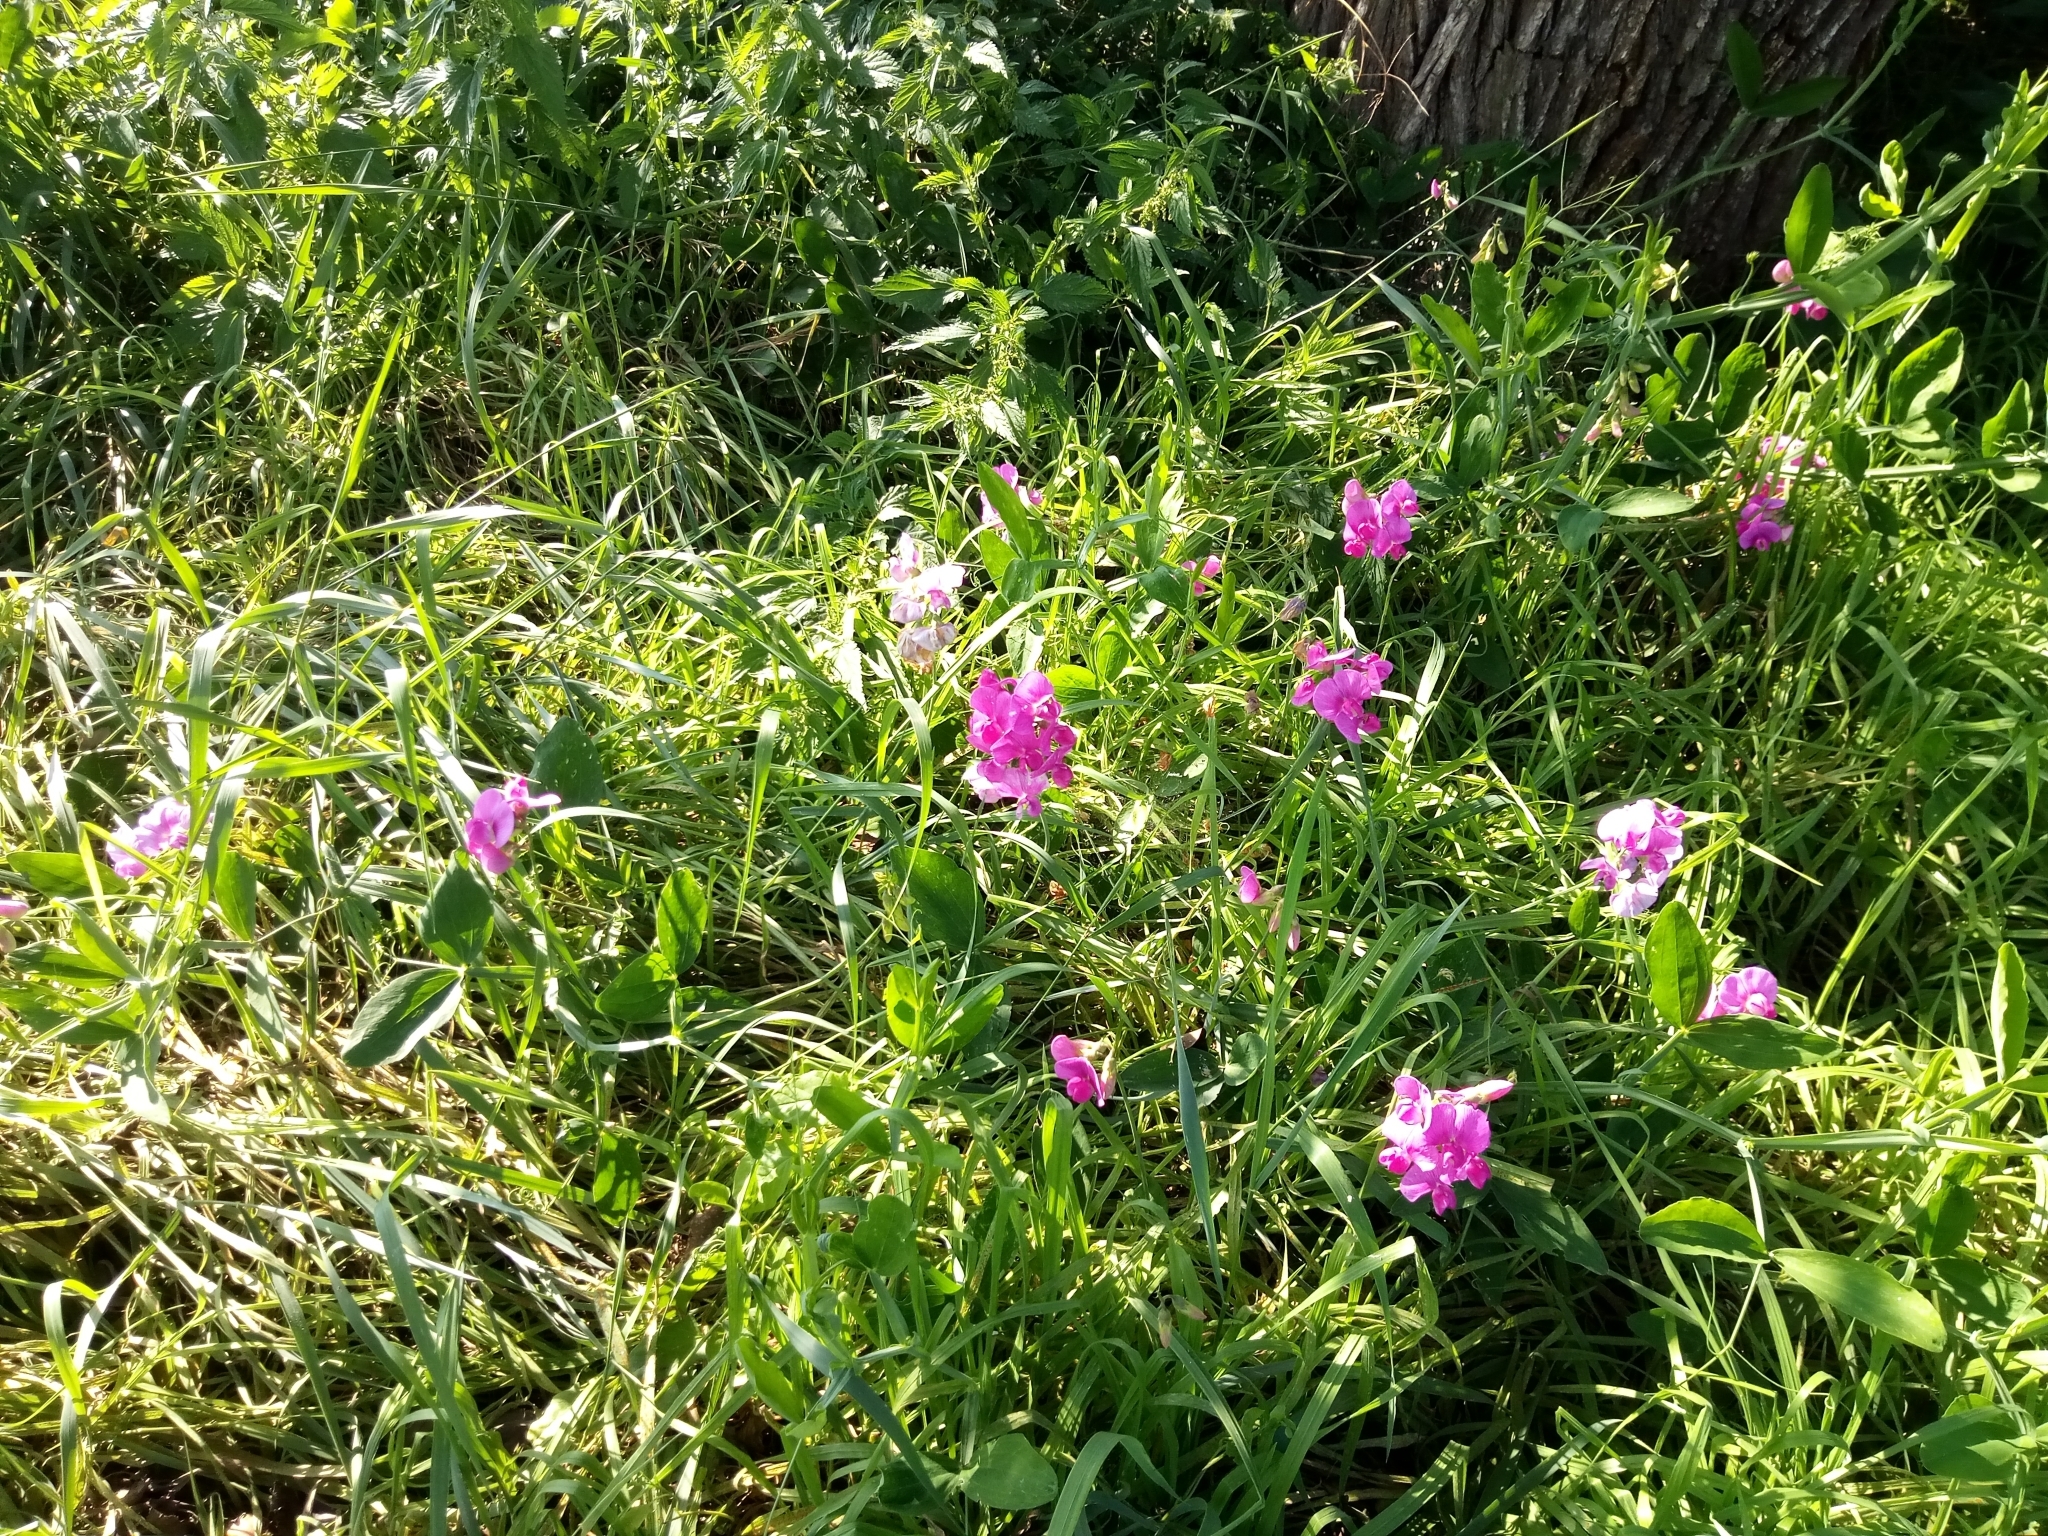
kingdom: Plantae
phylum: Tracheophyta
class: Magnoliopsida
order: Fabales
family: Fabaceae
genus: Lathyrus
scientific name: Lathyrus latifolius
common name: Perennial pea
